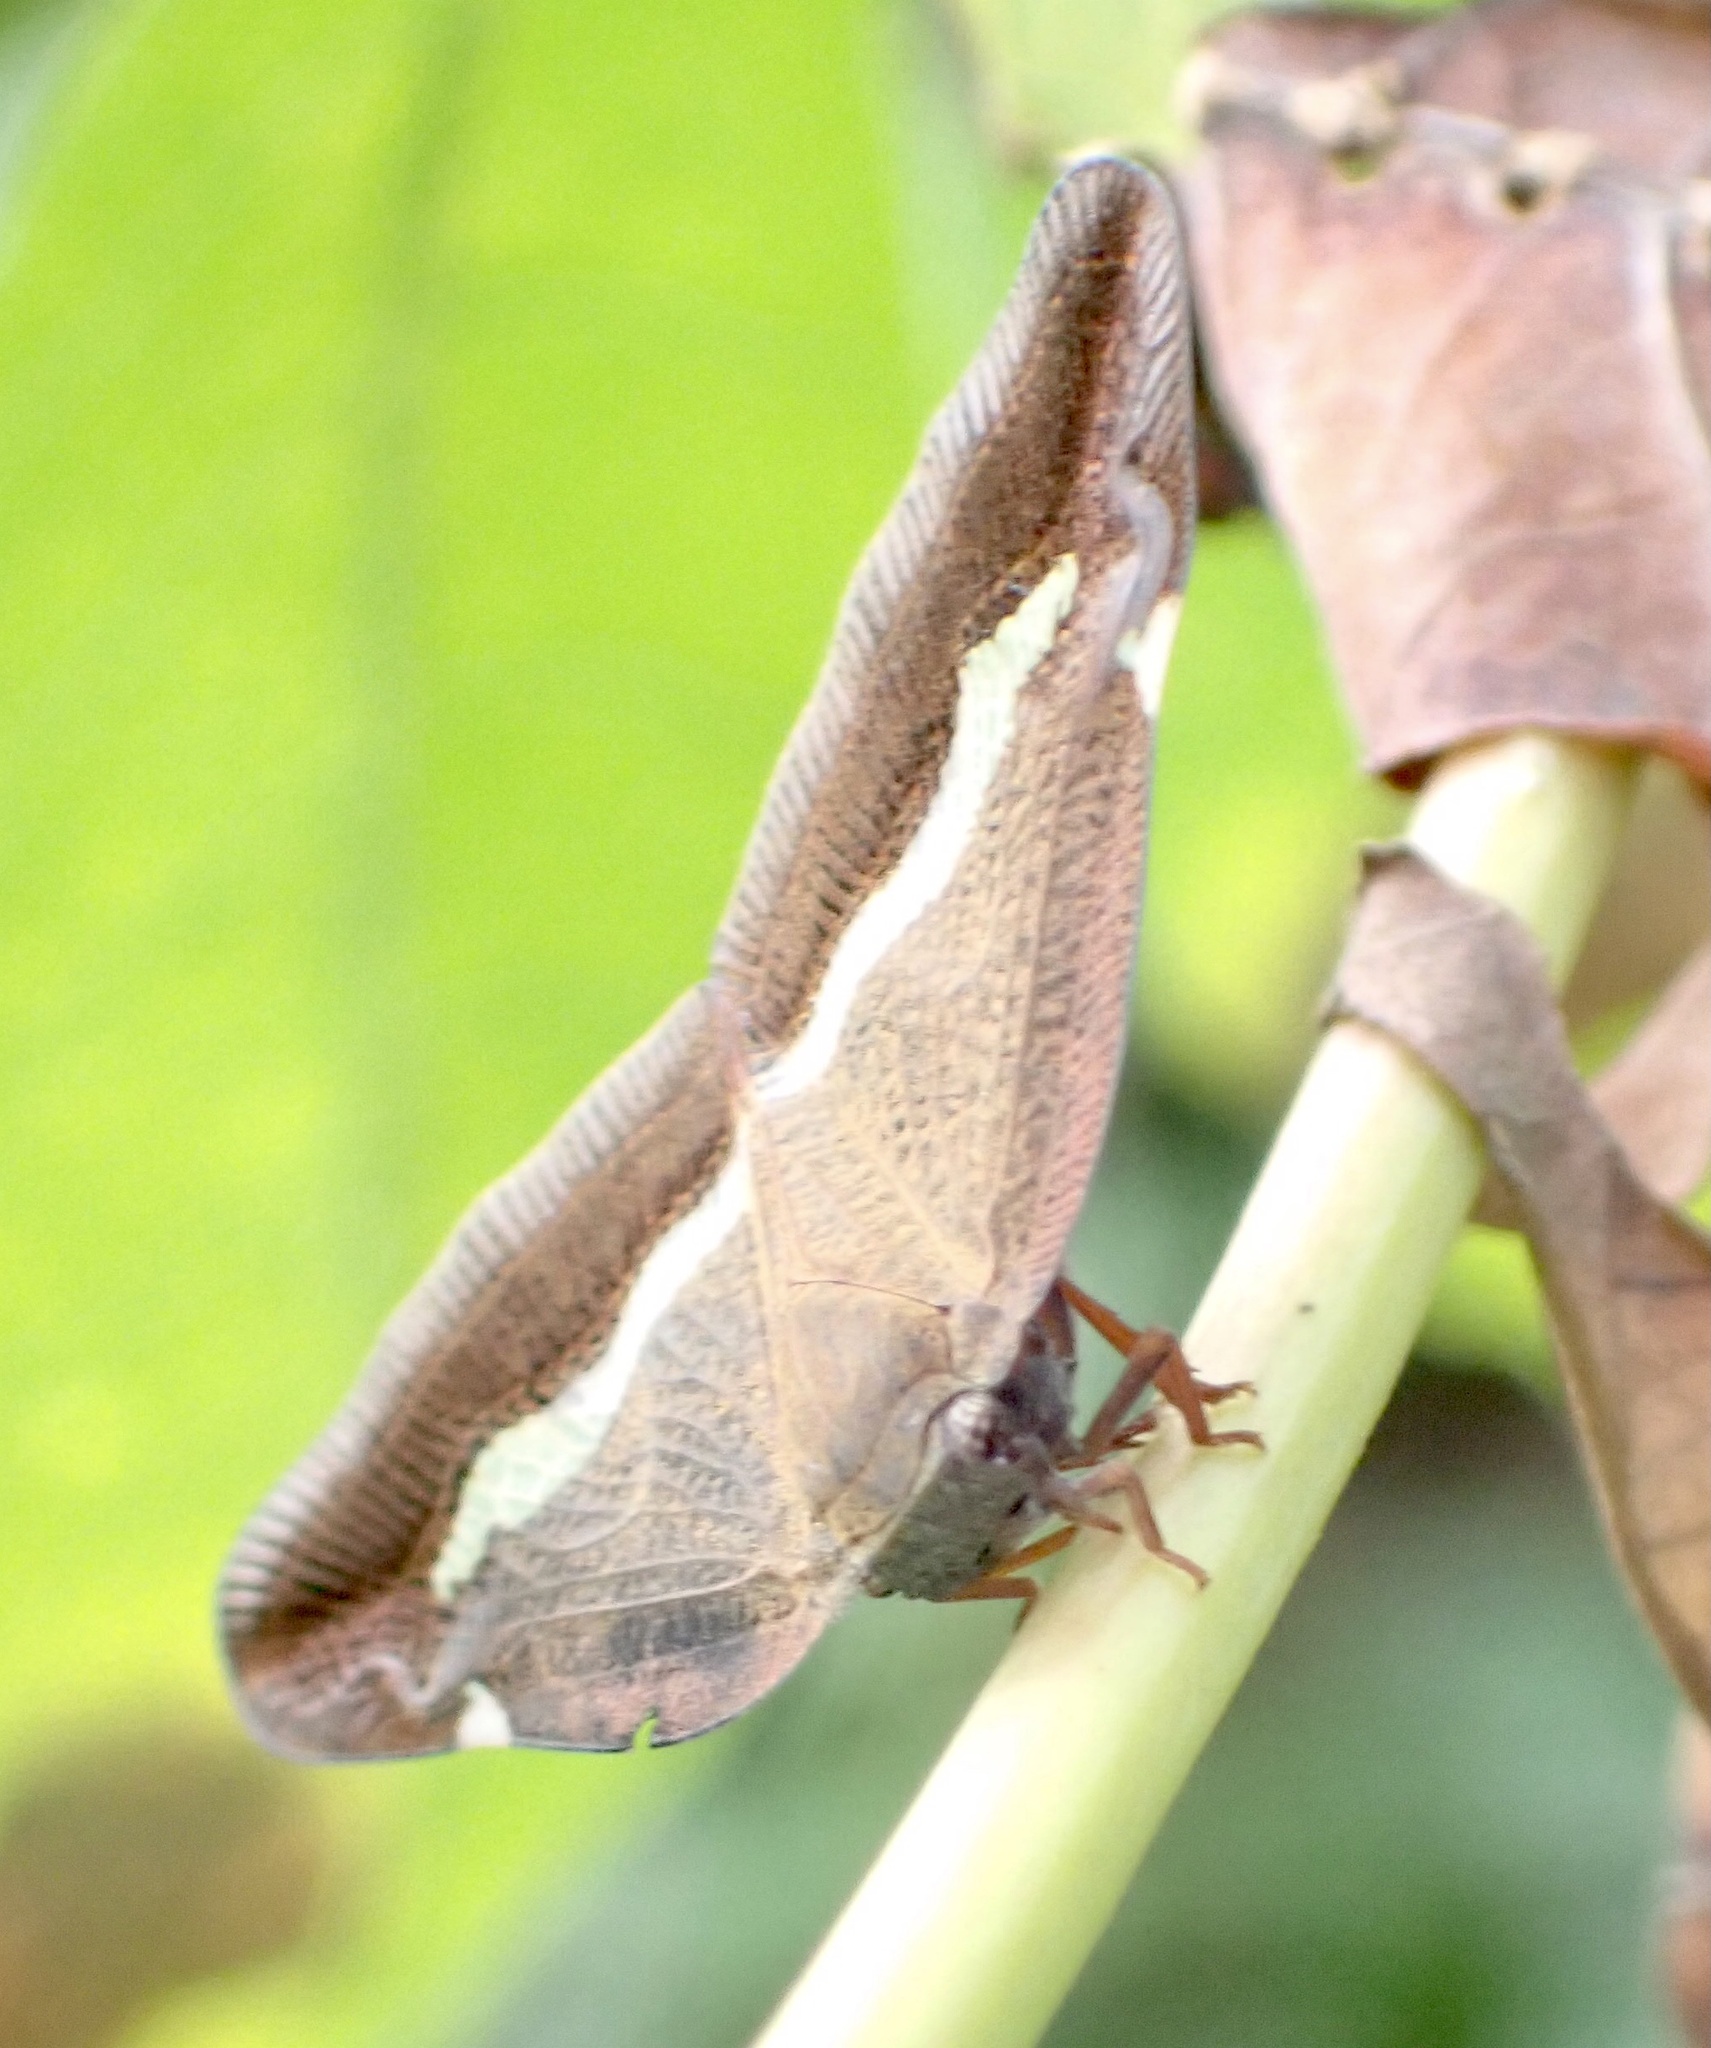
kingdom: Animalia
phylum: Arthropoda
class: Insecta
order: Hemiptera
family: Ricaniidae
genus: Pochazia
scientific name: Pochazia fasciata
